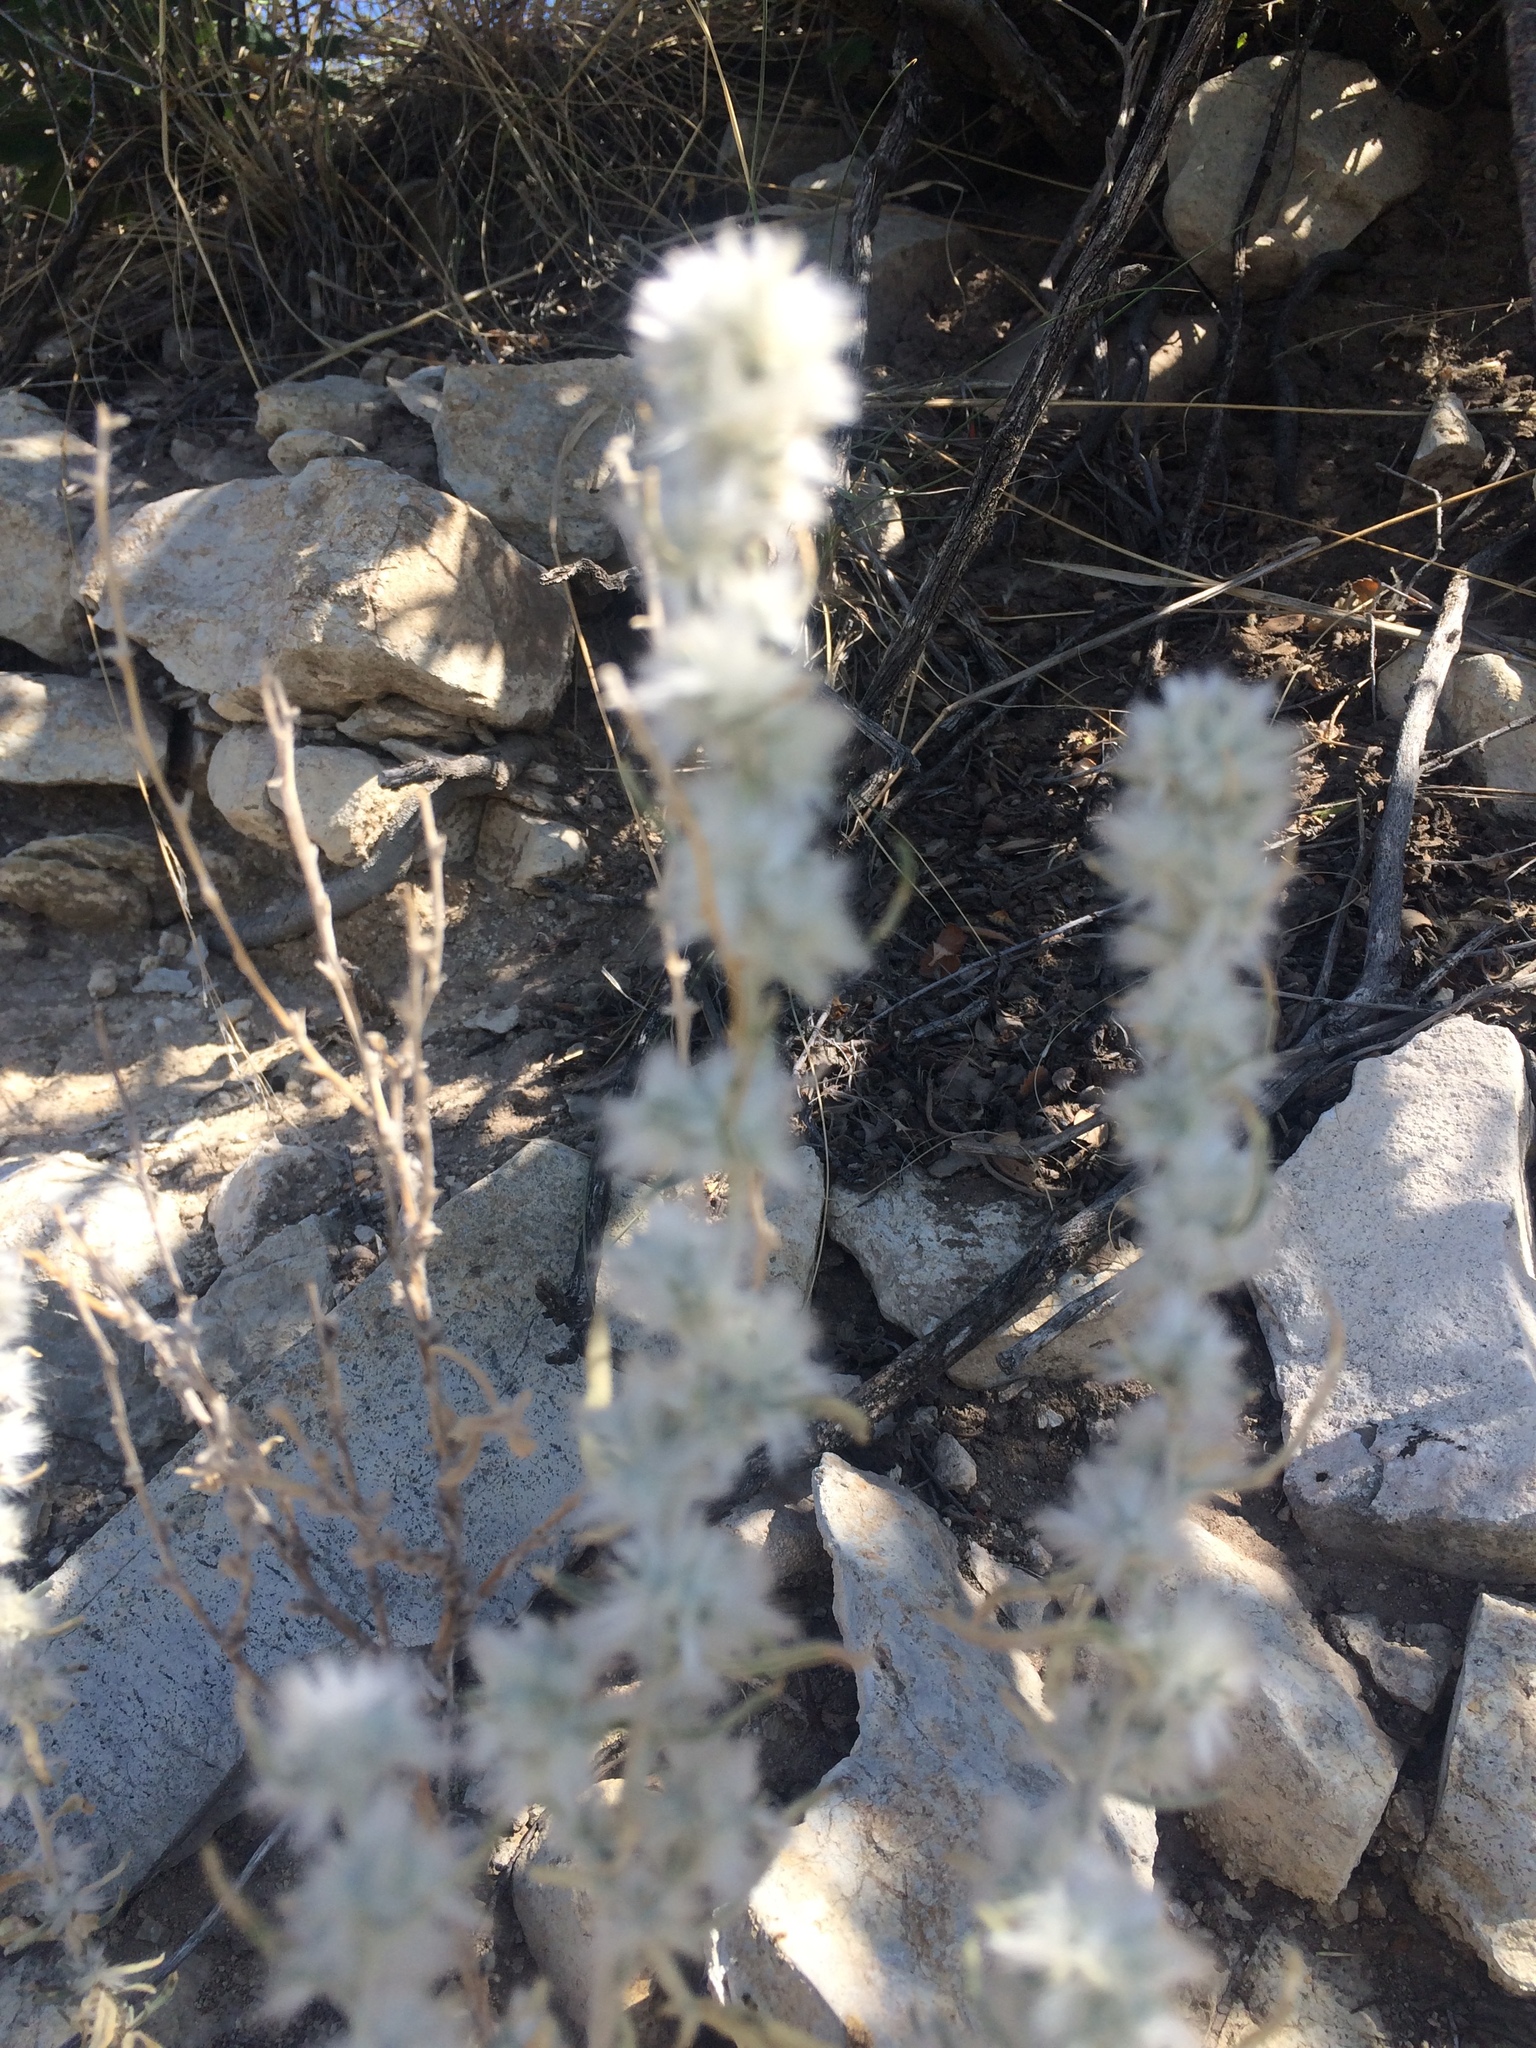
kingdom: Plantae
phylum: Tracheophyta
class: Magnoliopsida
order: Caryophyllales
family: Amaranthaceae
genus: Krascheninnikovia
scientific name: Krascheninnikovia lanata
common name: Winterfat
